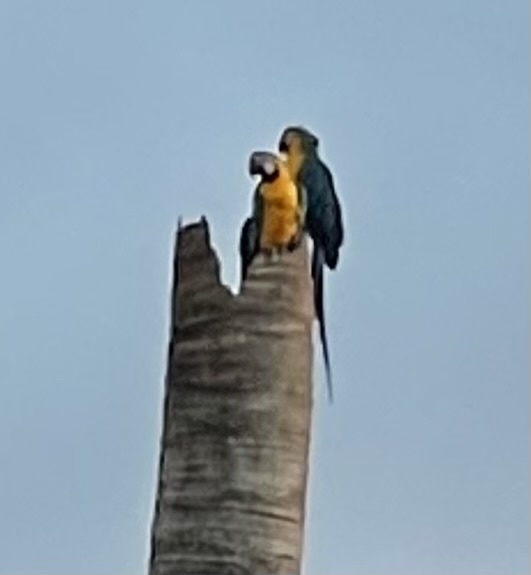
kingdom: Animalia
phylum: Chordata
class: Aves
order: Psittaciformes
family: Psittacidae
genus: Ara
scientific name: Ara ararauna
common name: Blue-and-yellow macaw
